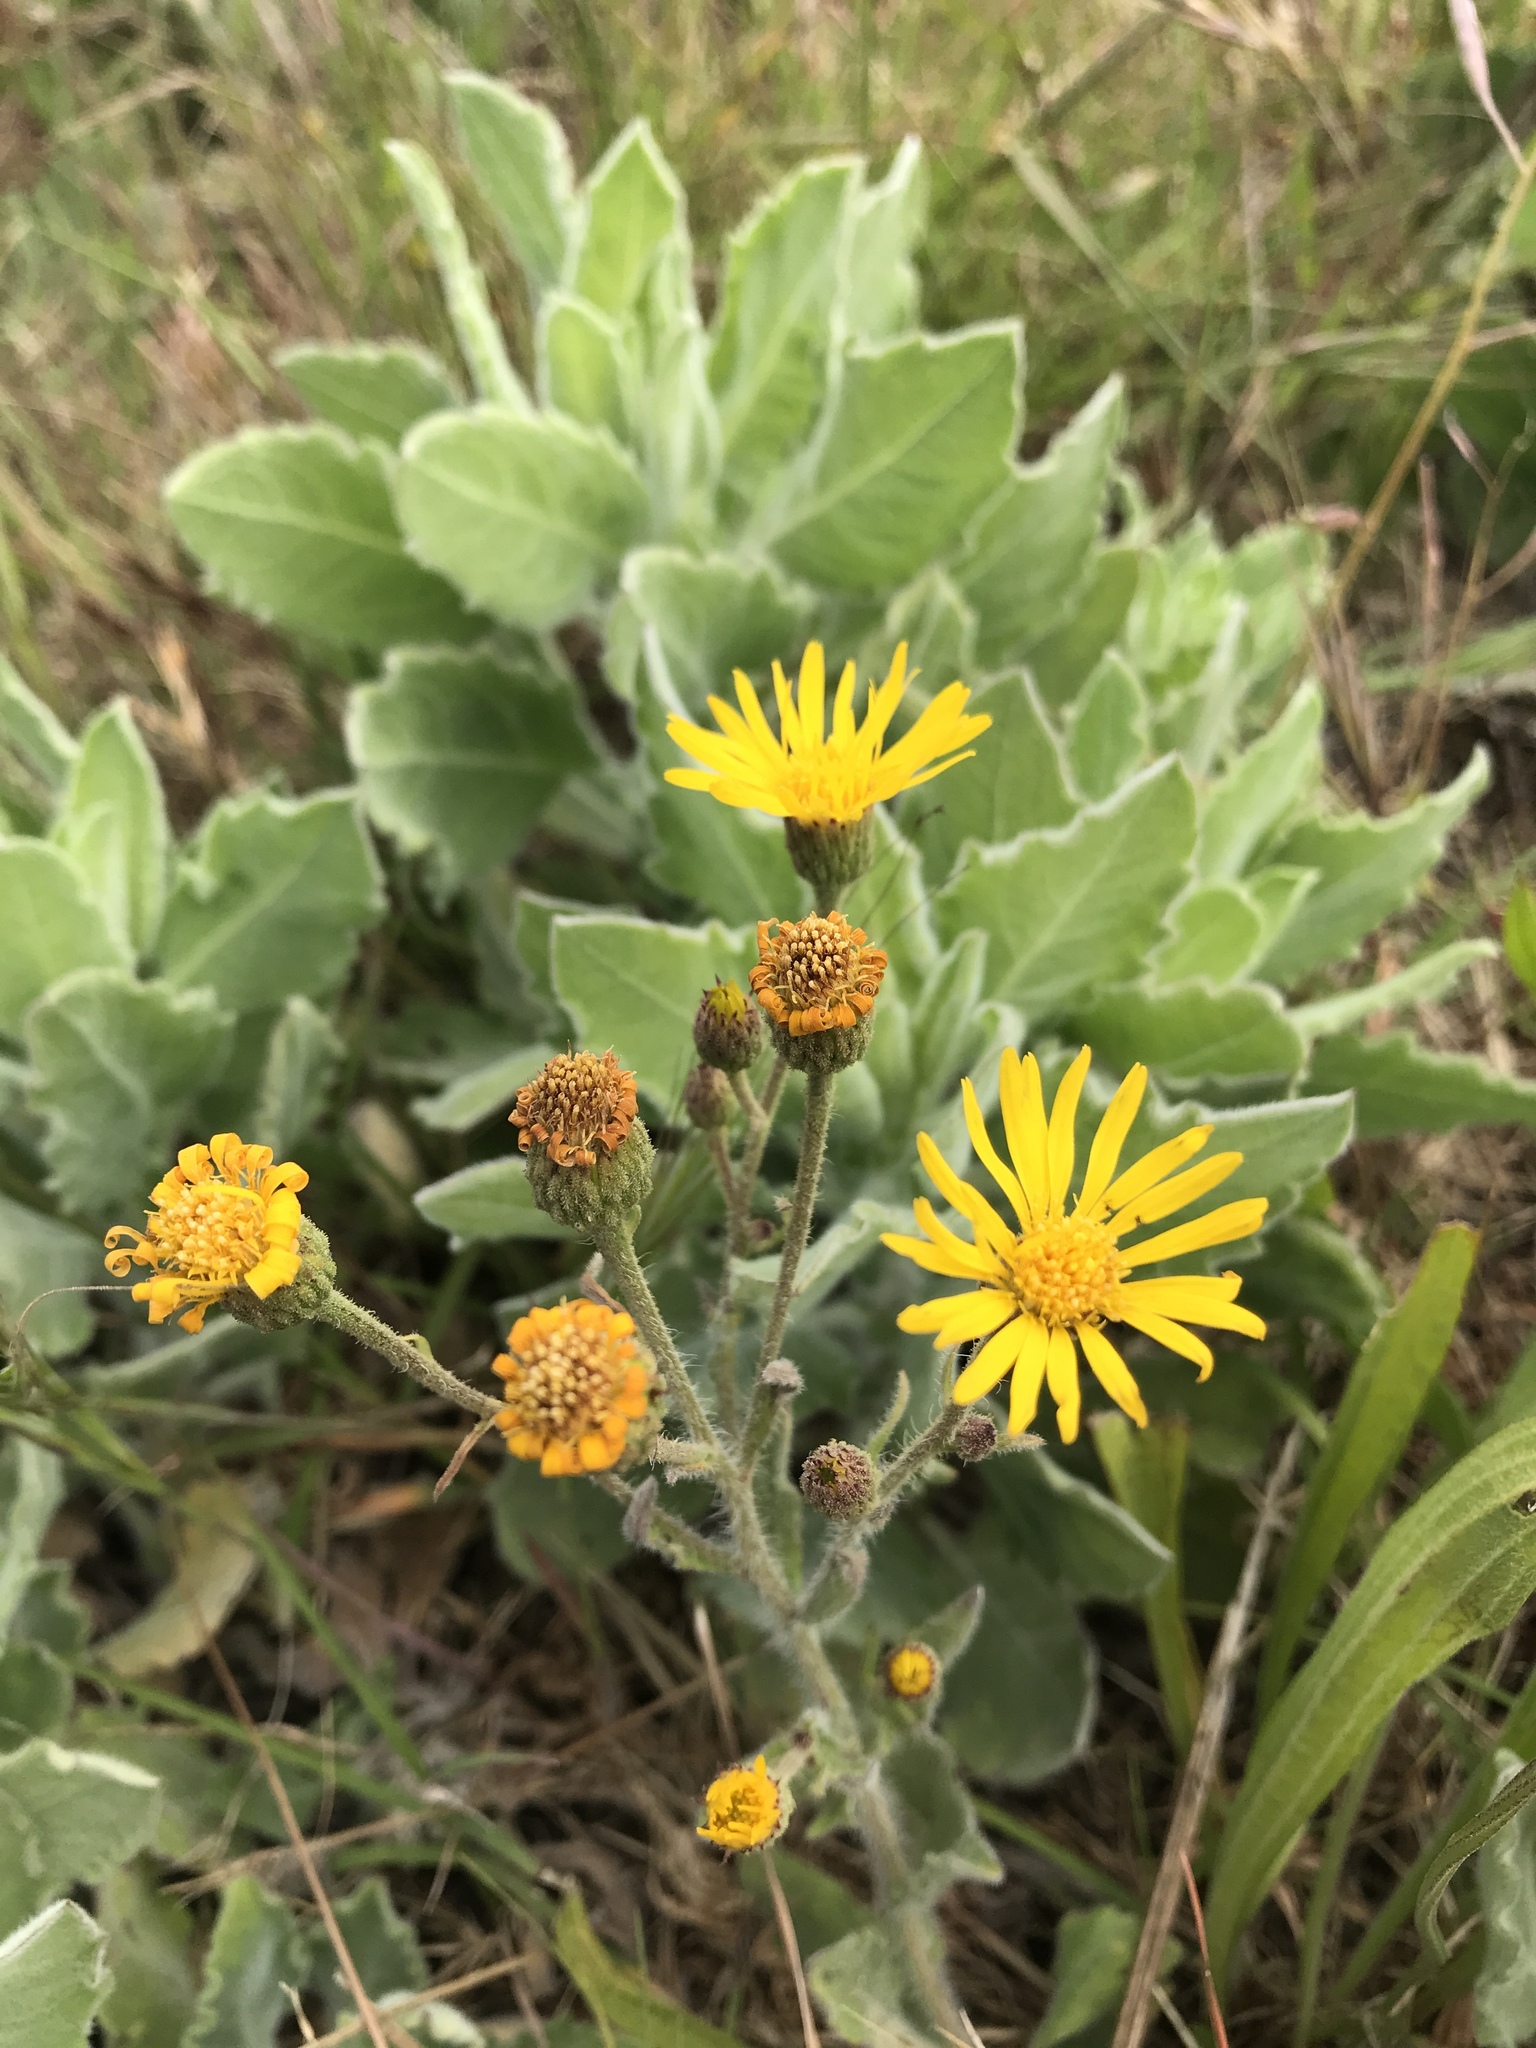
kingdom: Plantae
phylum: Tracheophyta
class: Magnoliopsida
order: Asterales
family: Asteraceae
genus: Heterotheca
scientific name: Heterotheca grandiflora
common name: Telegraphweed
